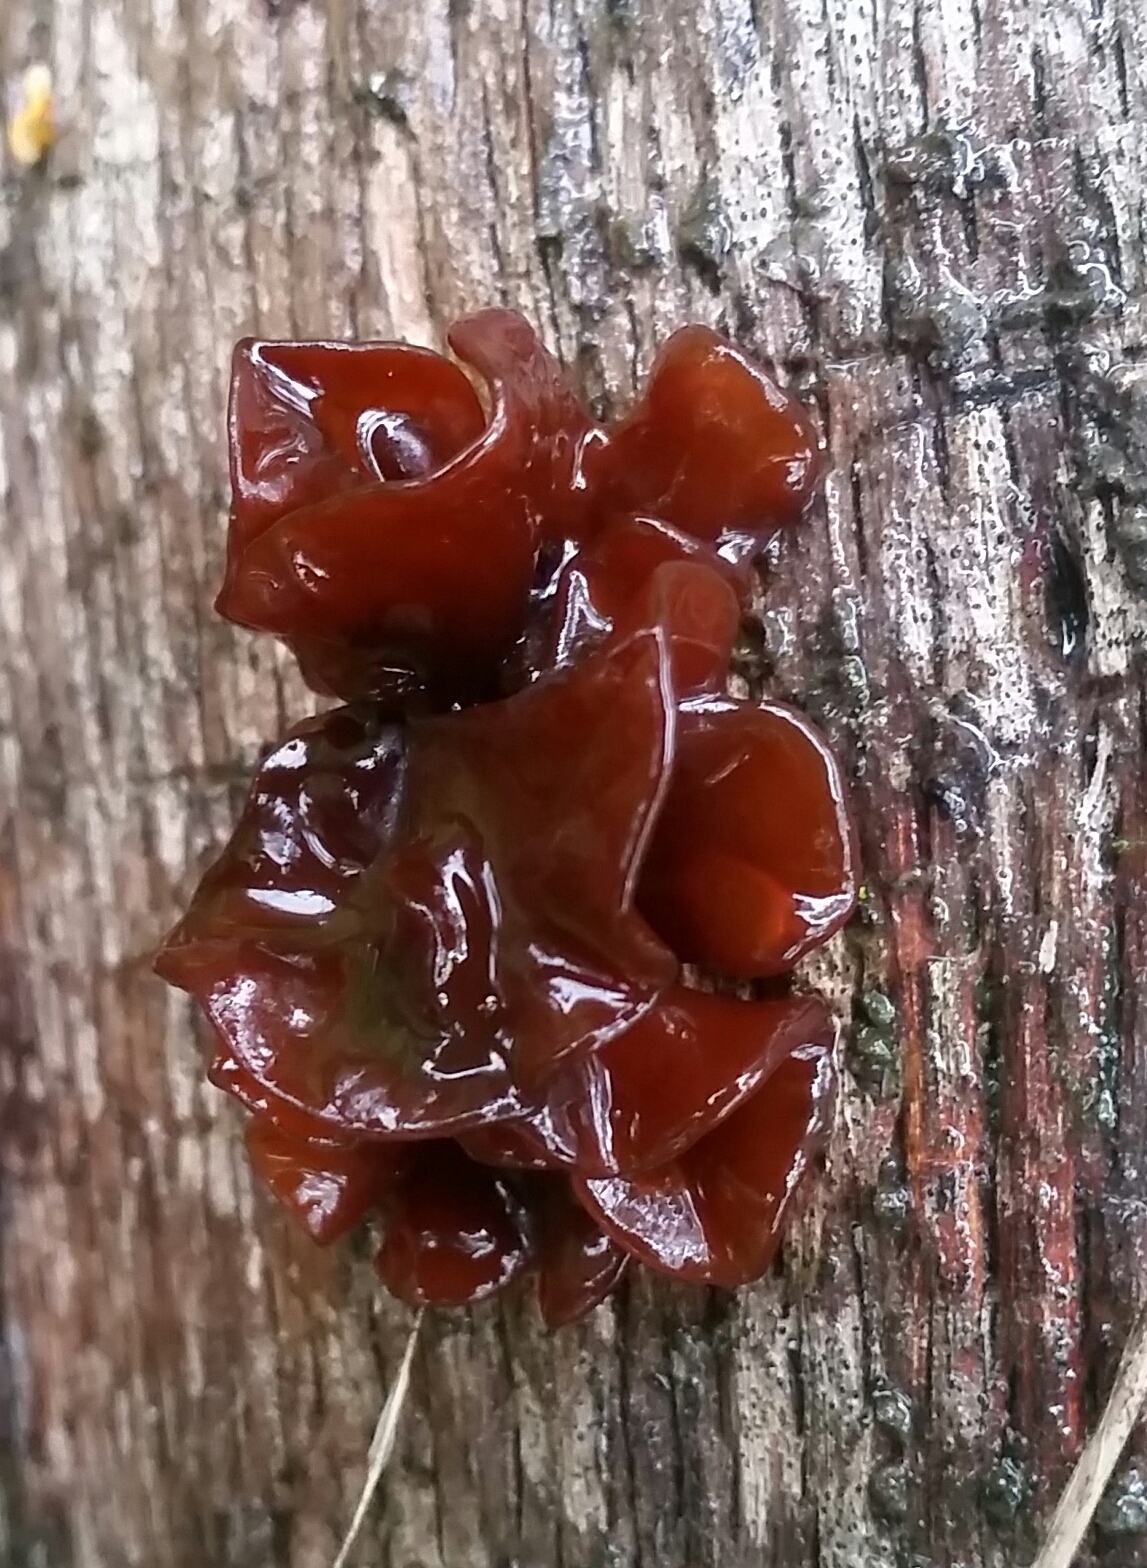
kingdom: Fungi
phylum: Basidiomycota
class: Tremellomycetes
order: Tremellales
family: Tremellaceae
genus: Phaeotremella
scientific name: Phaeotremella foliacea
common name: Leafy brain
